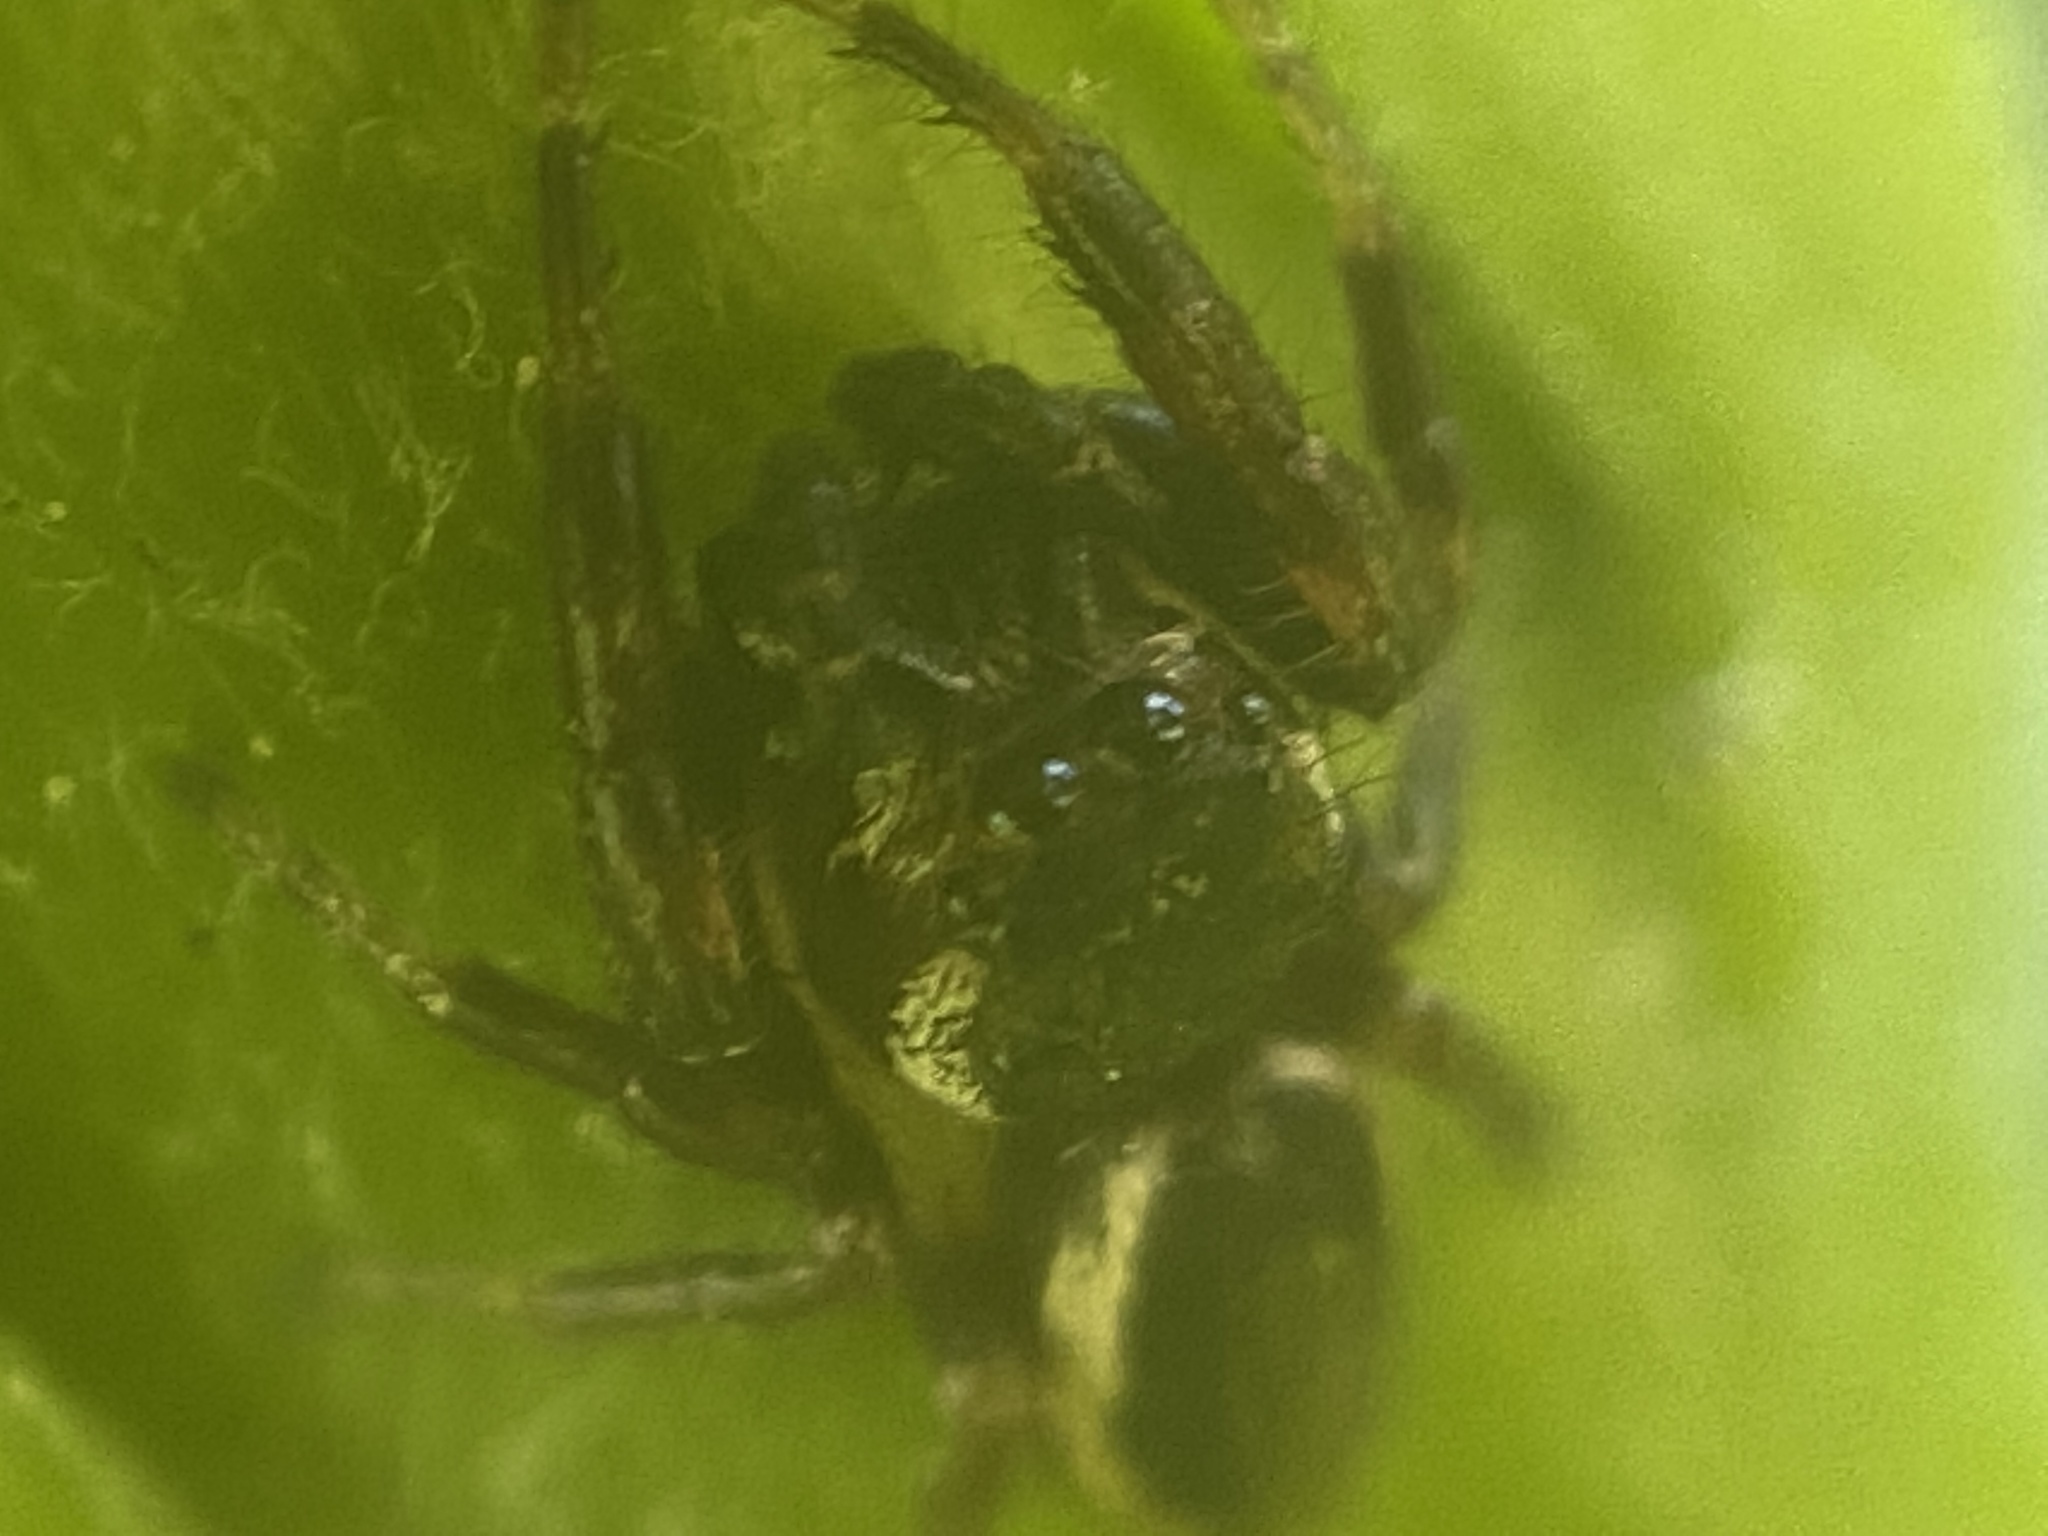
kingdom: Animalia
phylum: Arthropoda
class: Arachnida
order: Araneae
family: Salticidae
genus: Eris
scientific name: Eris militaris
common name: Bronze jumper
